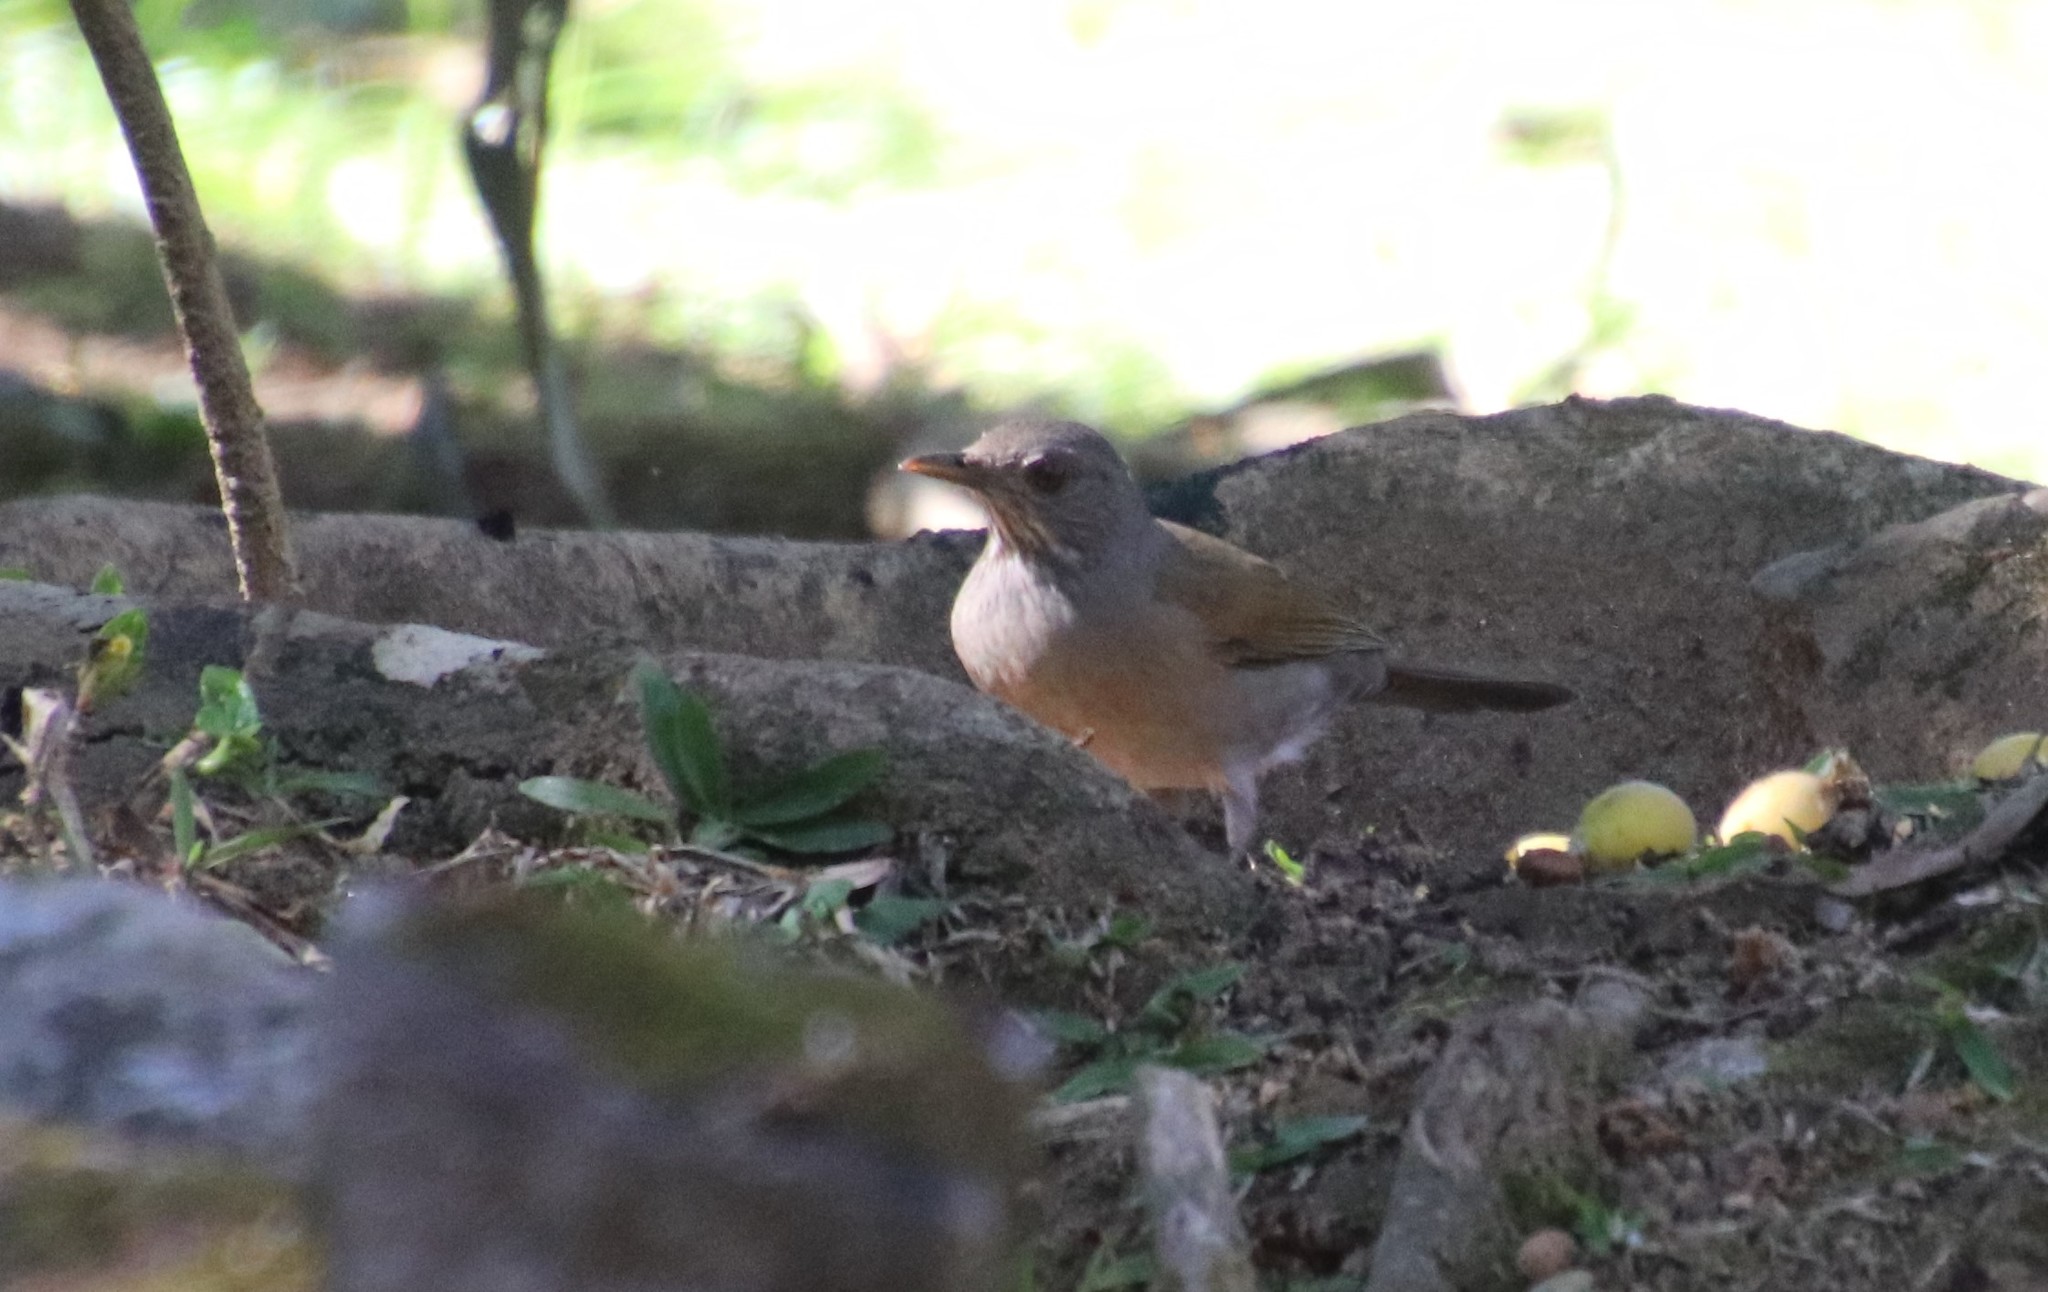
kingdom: Animalia
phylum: Chordata
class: Aves
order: Passeriformes
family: Turdidae
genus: Turdus
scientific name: Turdus leucomelas
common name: Pale-breasted thrush
